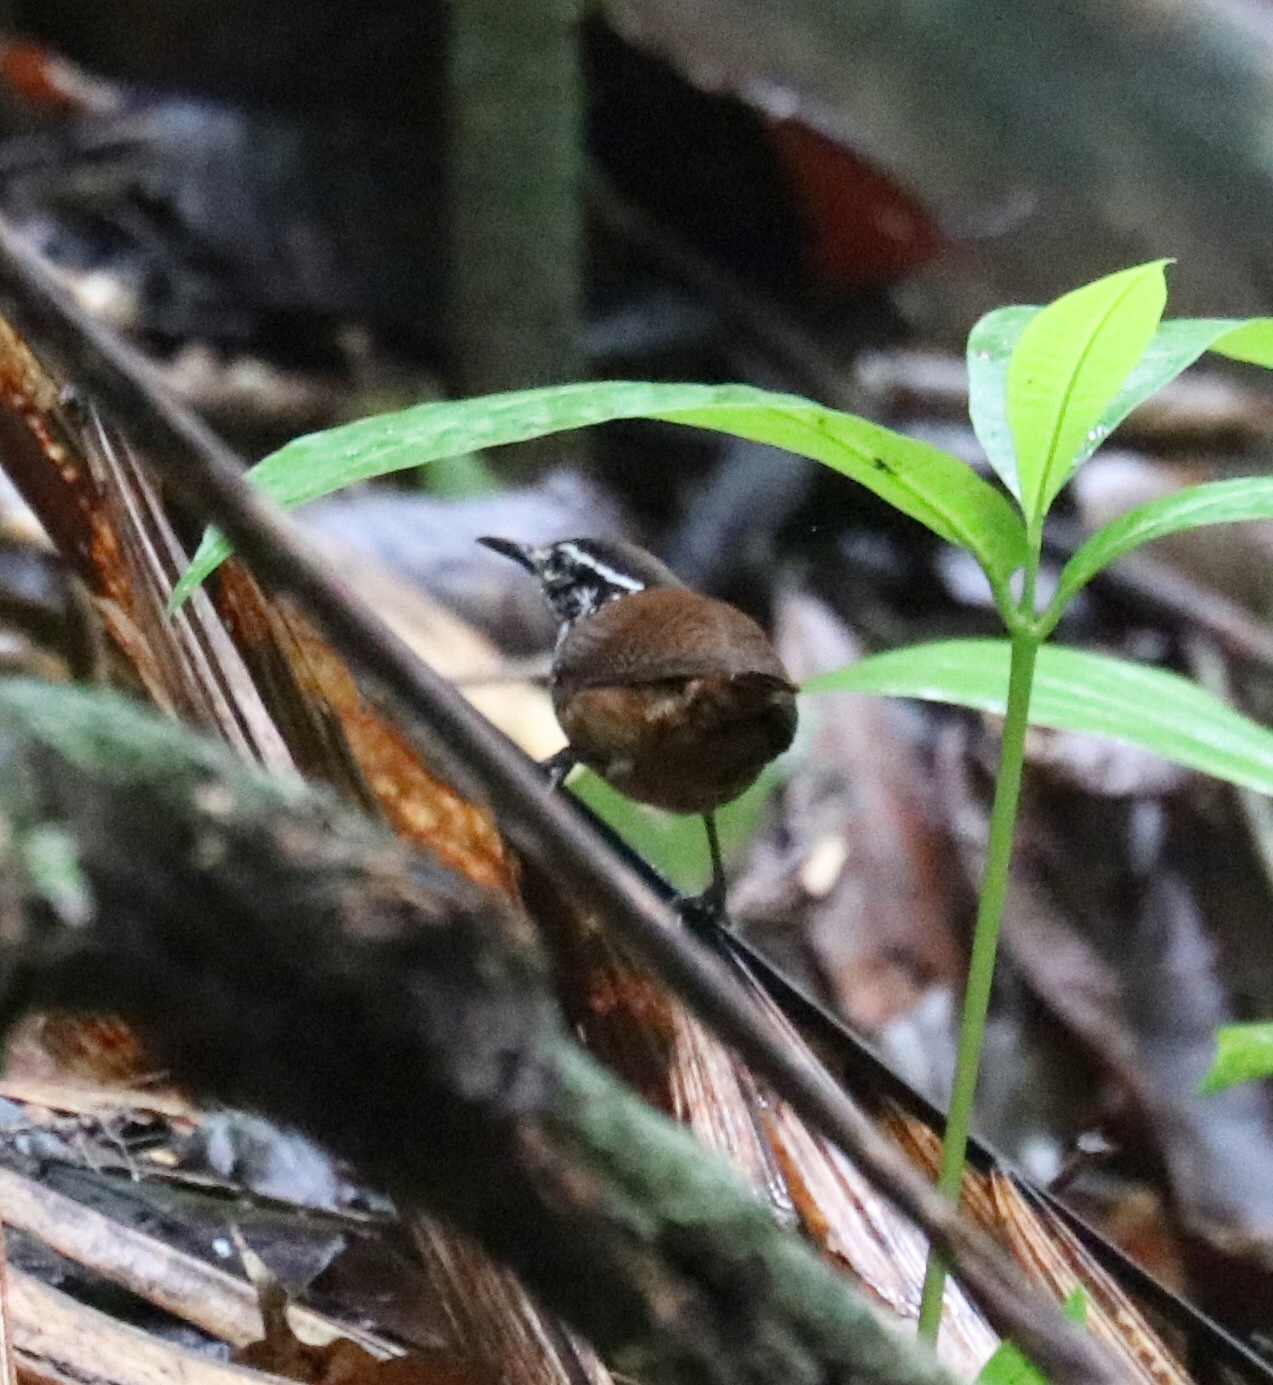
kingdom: Animalia
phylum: Chordata
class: Aves
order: Passeriformes
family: Troglodytidae
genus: Henicorhina
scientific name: Henicorhina leucosticta
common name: White-breasted wood-wren
